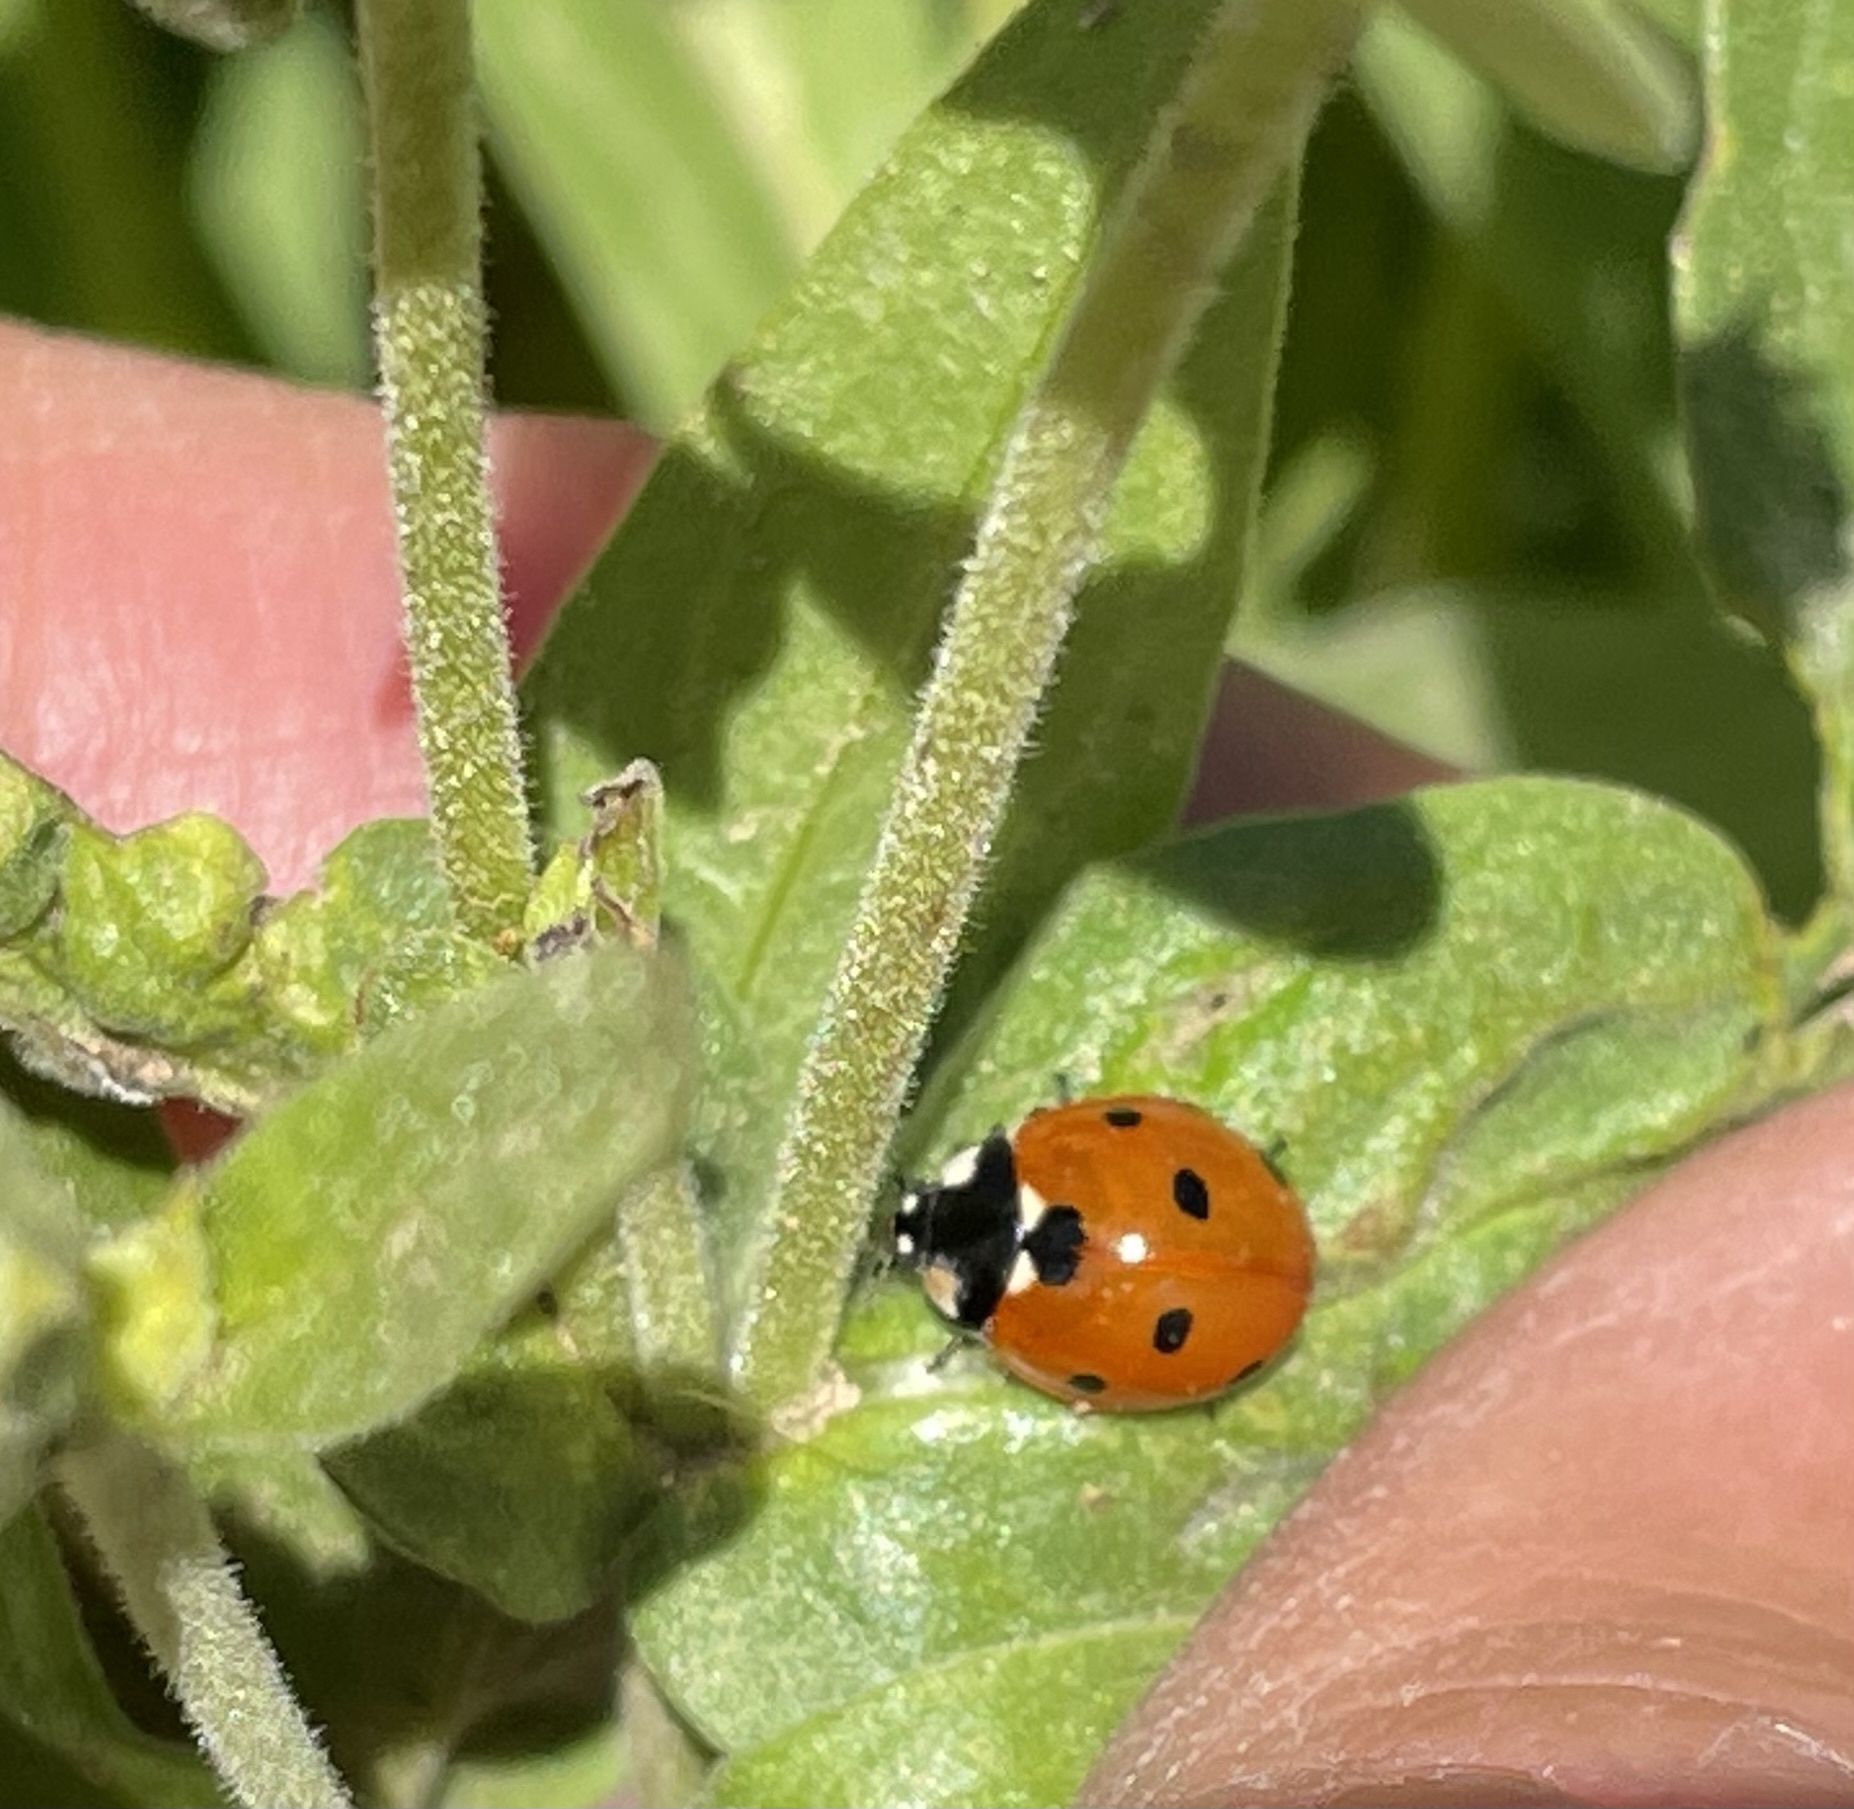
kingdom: Animalia
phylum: Arthropoda
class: Insecta
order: Coleoptera
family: Coccinellidae
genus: Coccinella
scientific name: Coccinella septempunctata
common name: Sevenspotted lady beetle
